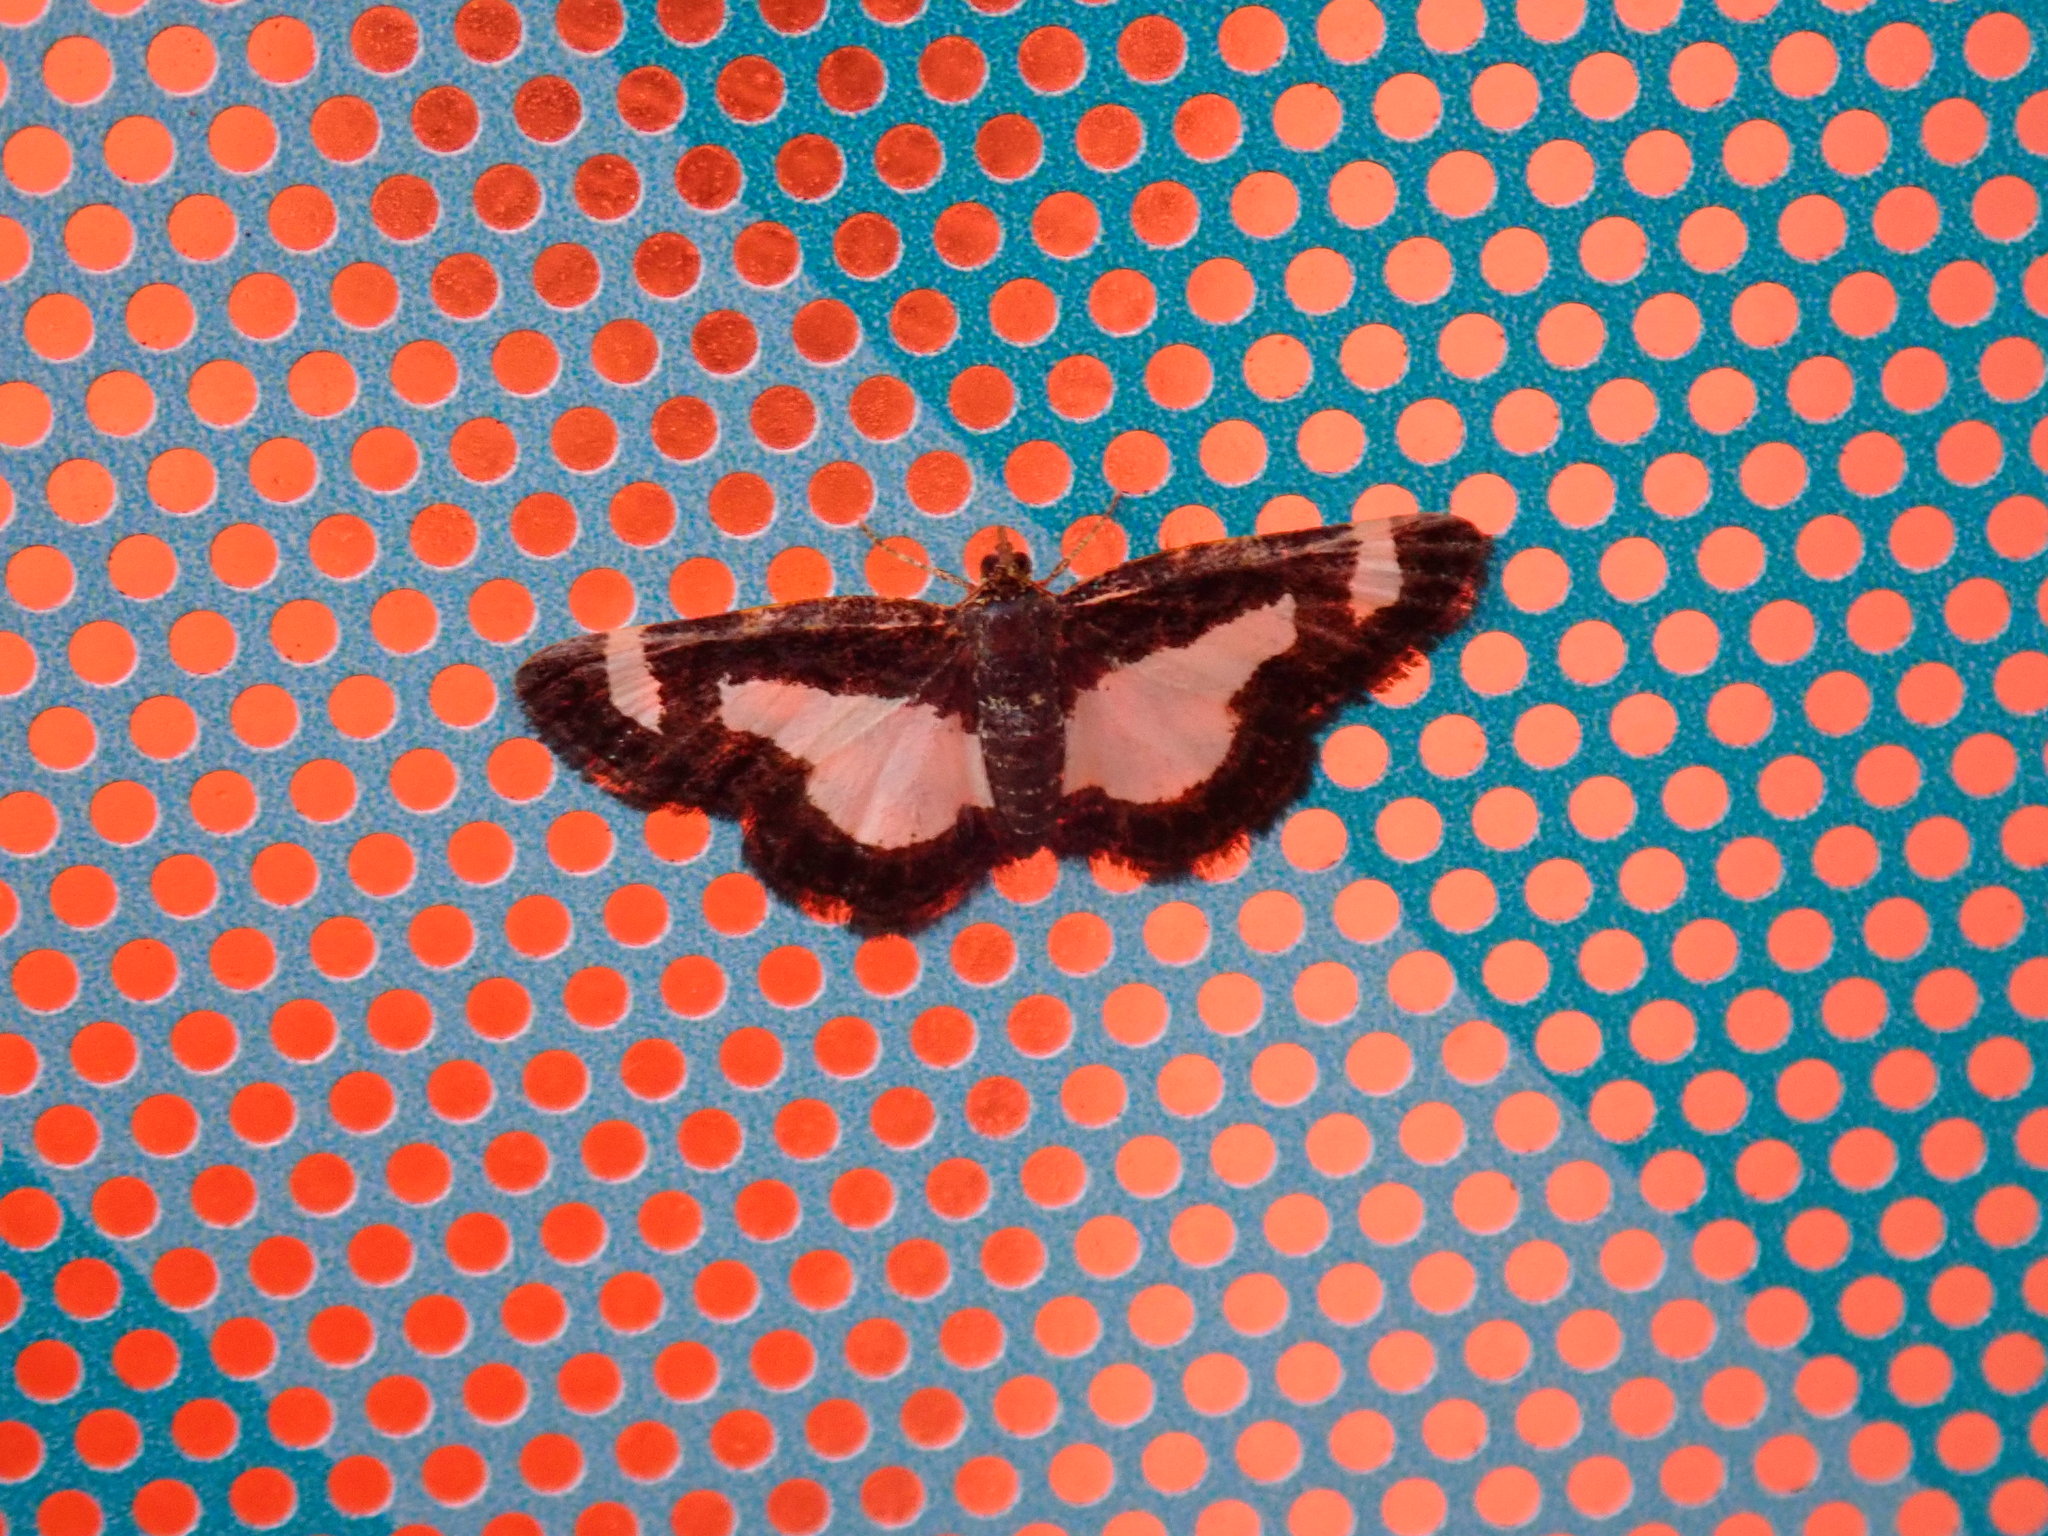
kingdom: Animalia
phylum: Arthropoda
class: Insecta
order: Lepidoptera
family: Geometridae
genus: Heliomata
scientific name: Heliomata cycladata
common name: Common spring moth
